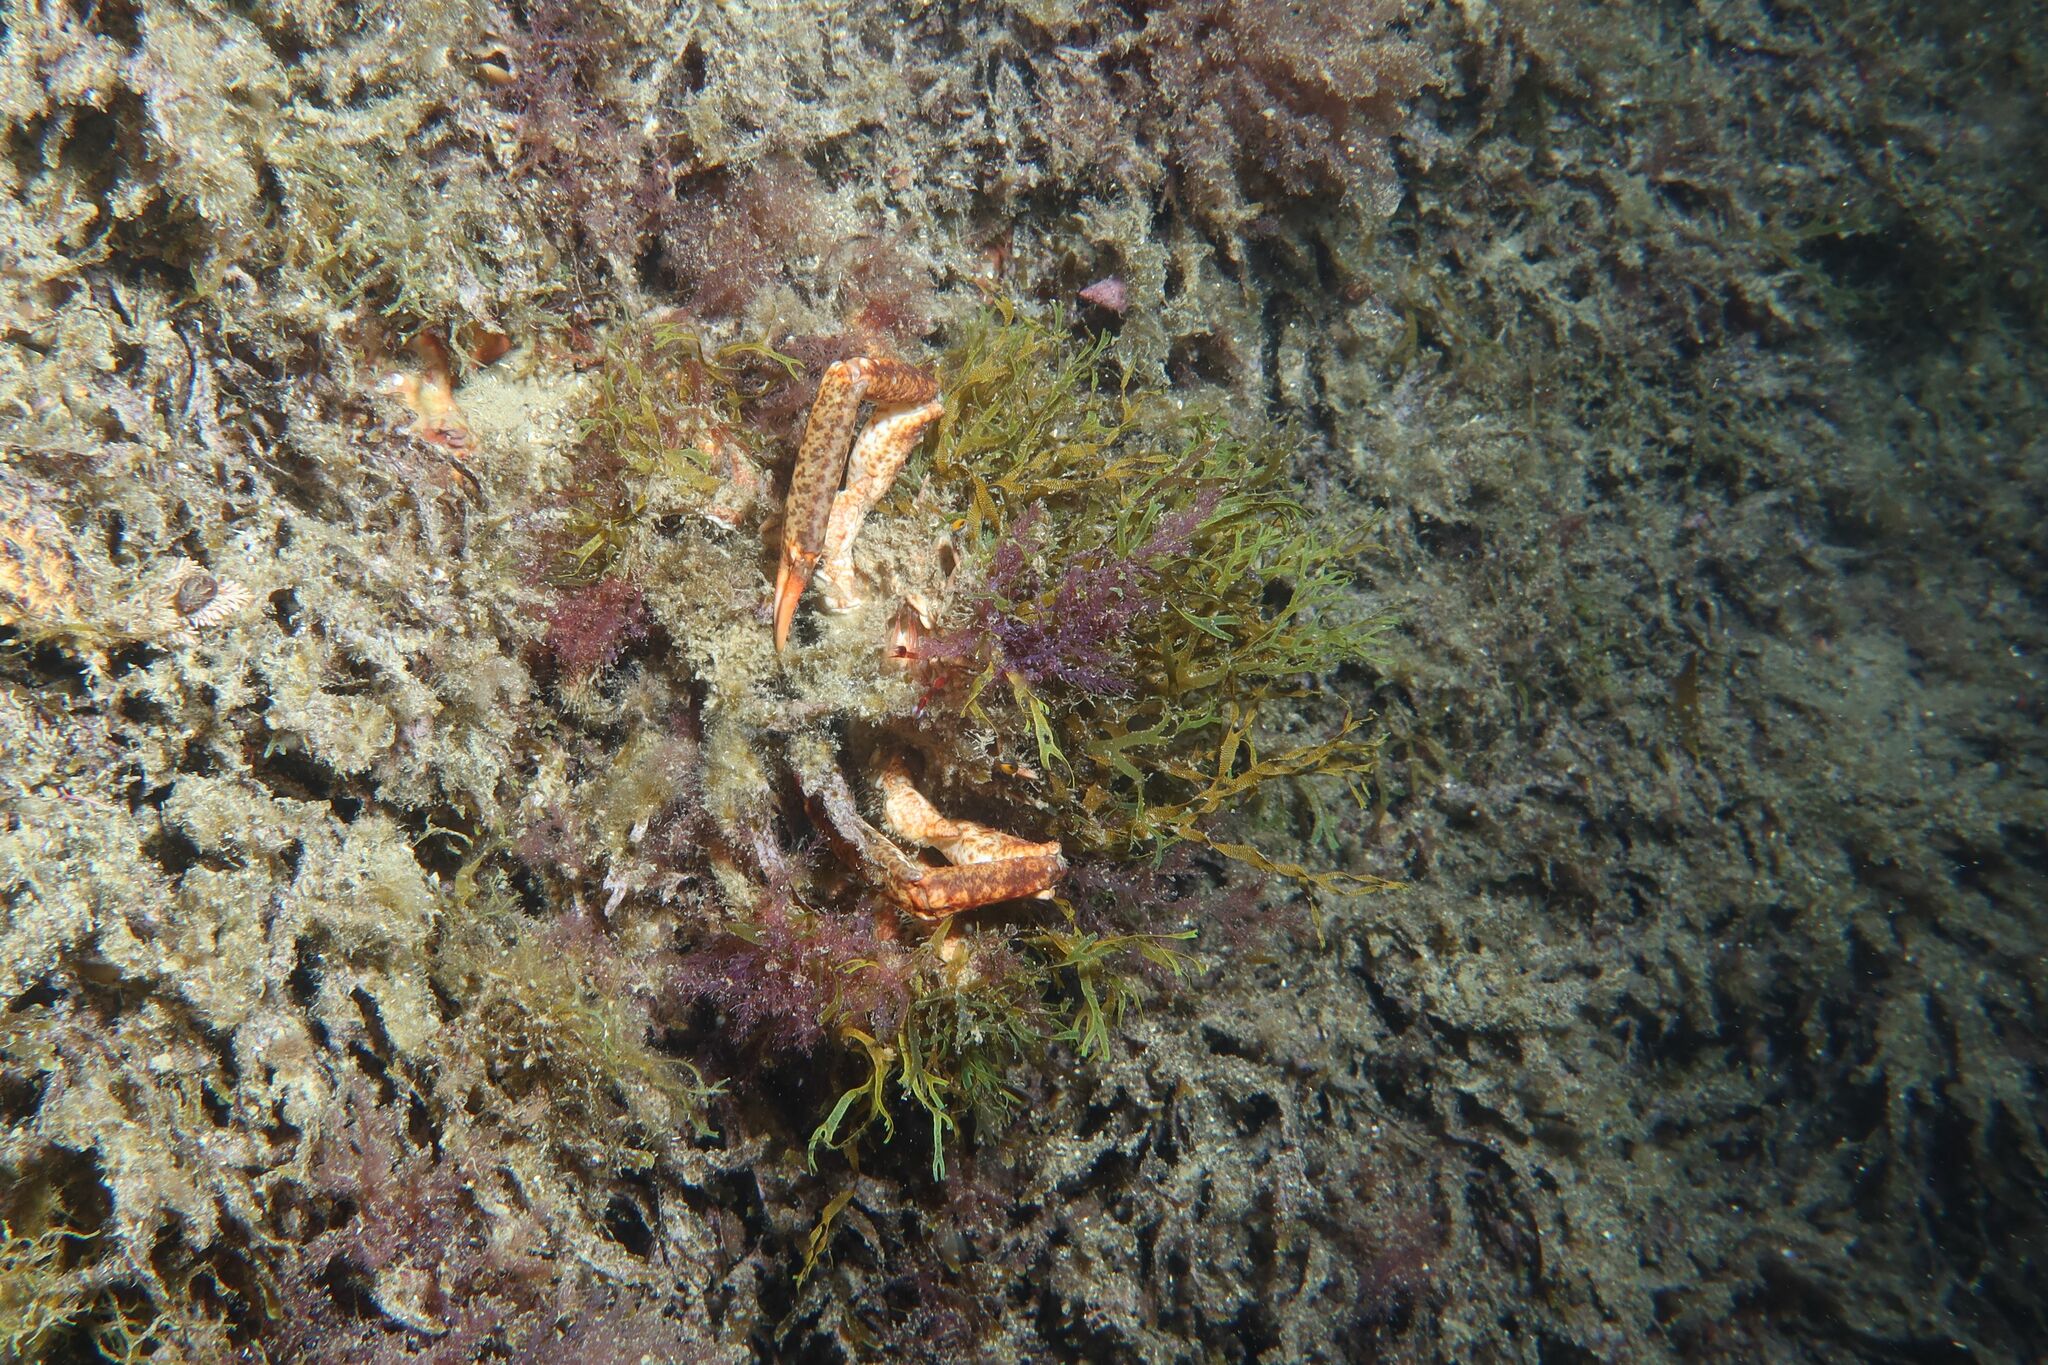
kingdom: Animalia
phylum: Arthropoda
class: Malacostraca
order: Decapoda
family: Majidae
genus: Maja
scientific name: Maja crispata
